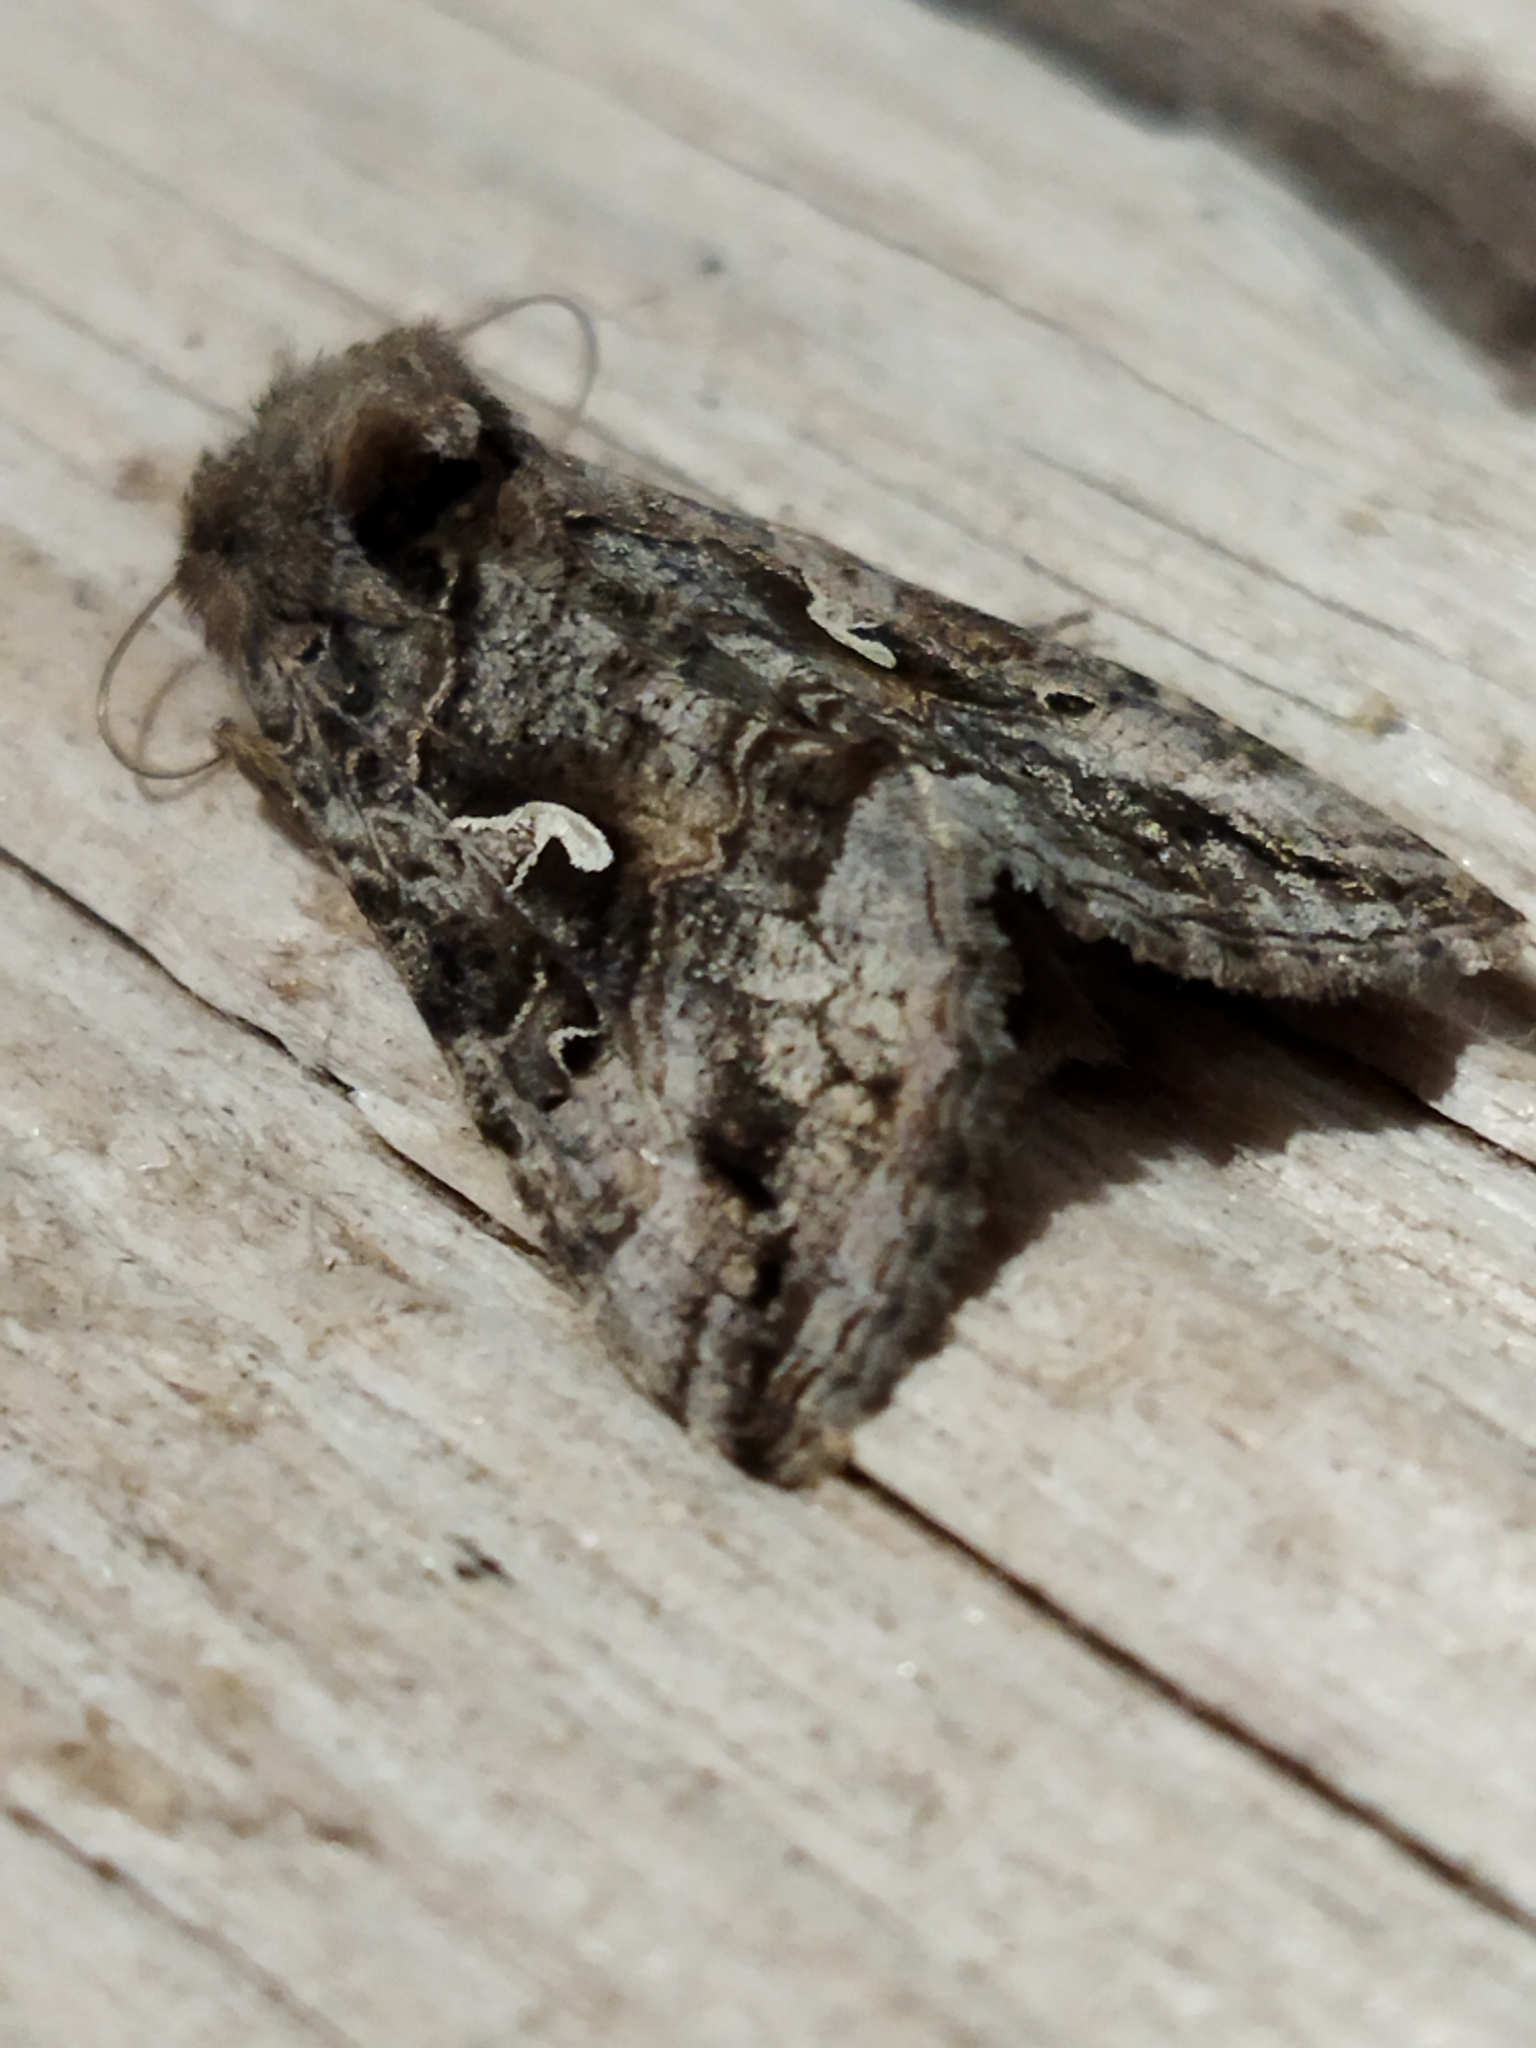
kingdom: Animalia
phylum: Arthropoda
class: Insecta
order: Lepidoptera
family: Noctuidae
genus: Autographa
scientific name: Autographa gamma
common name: Silver y
